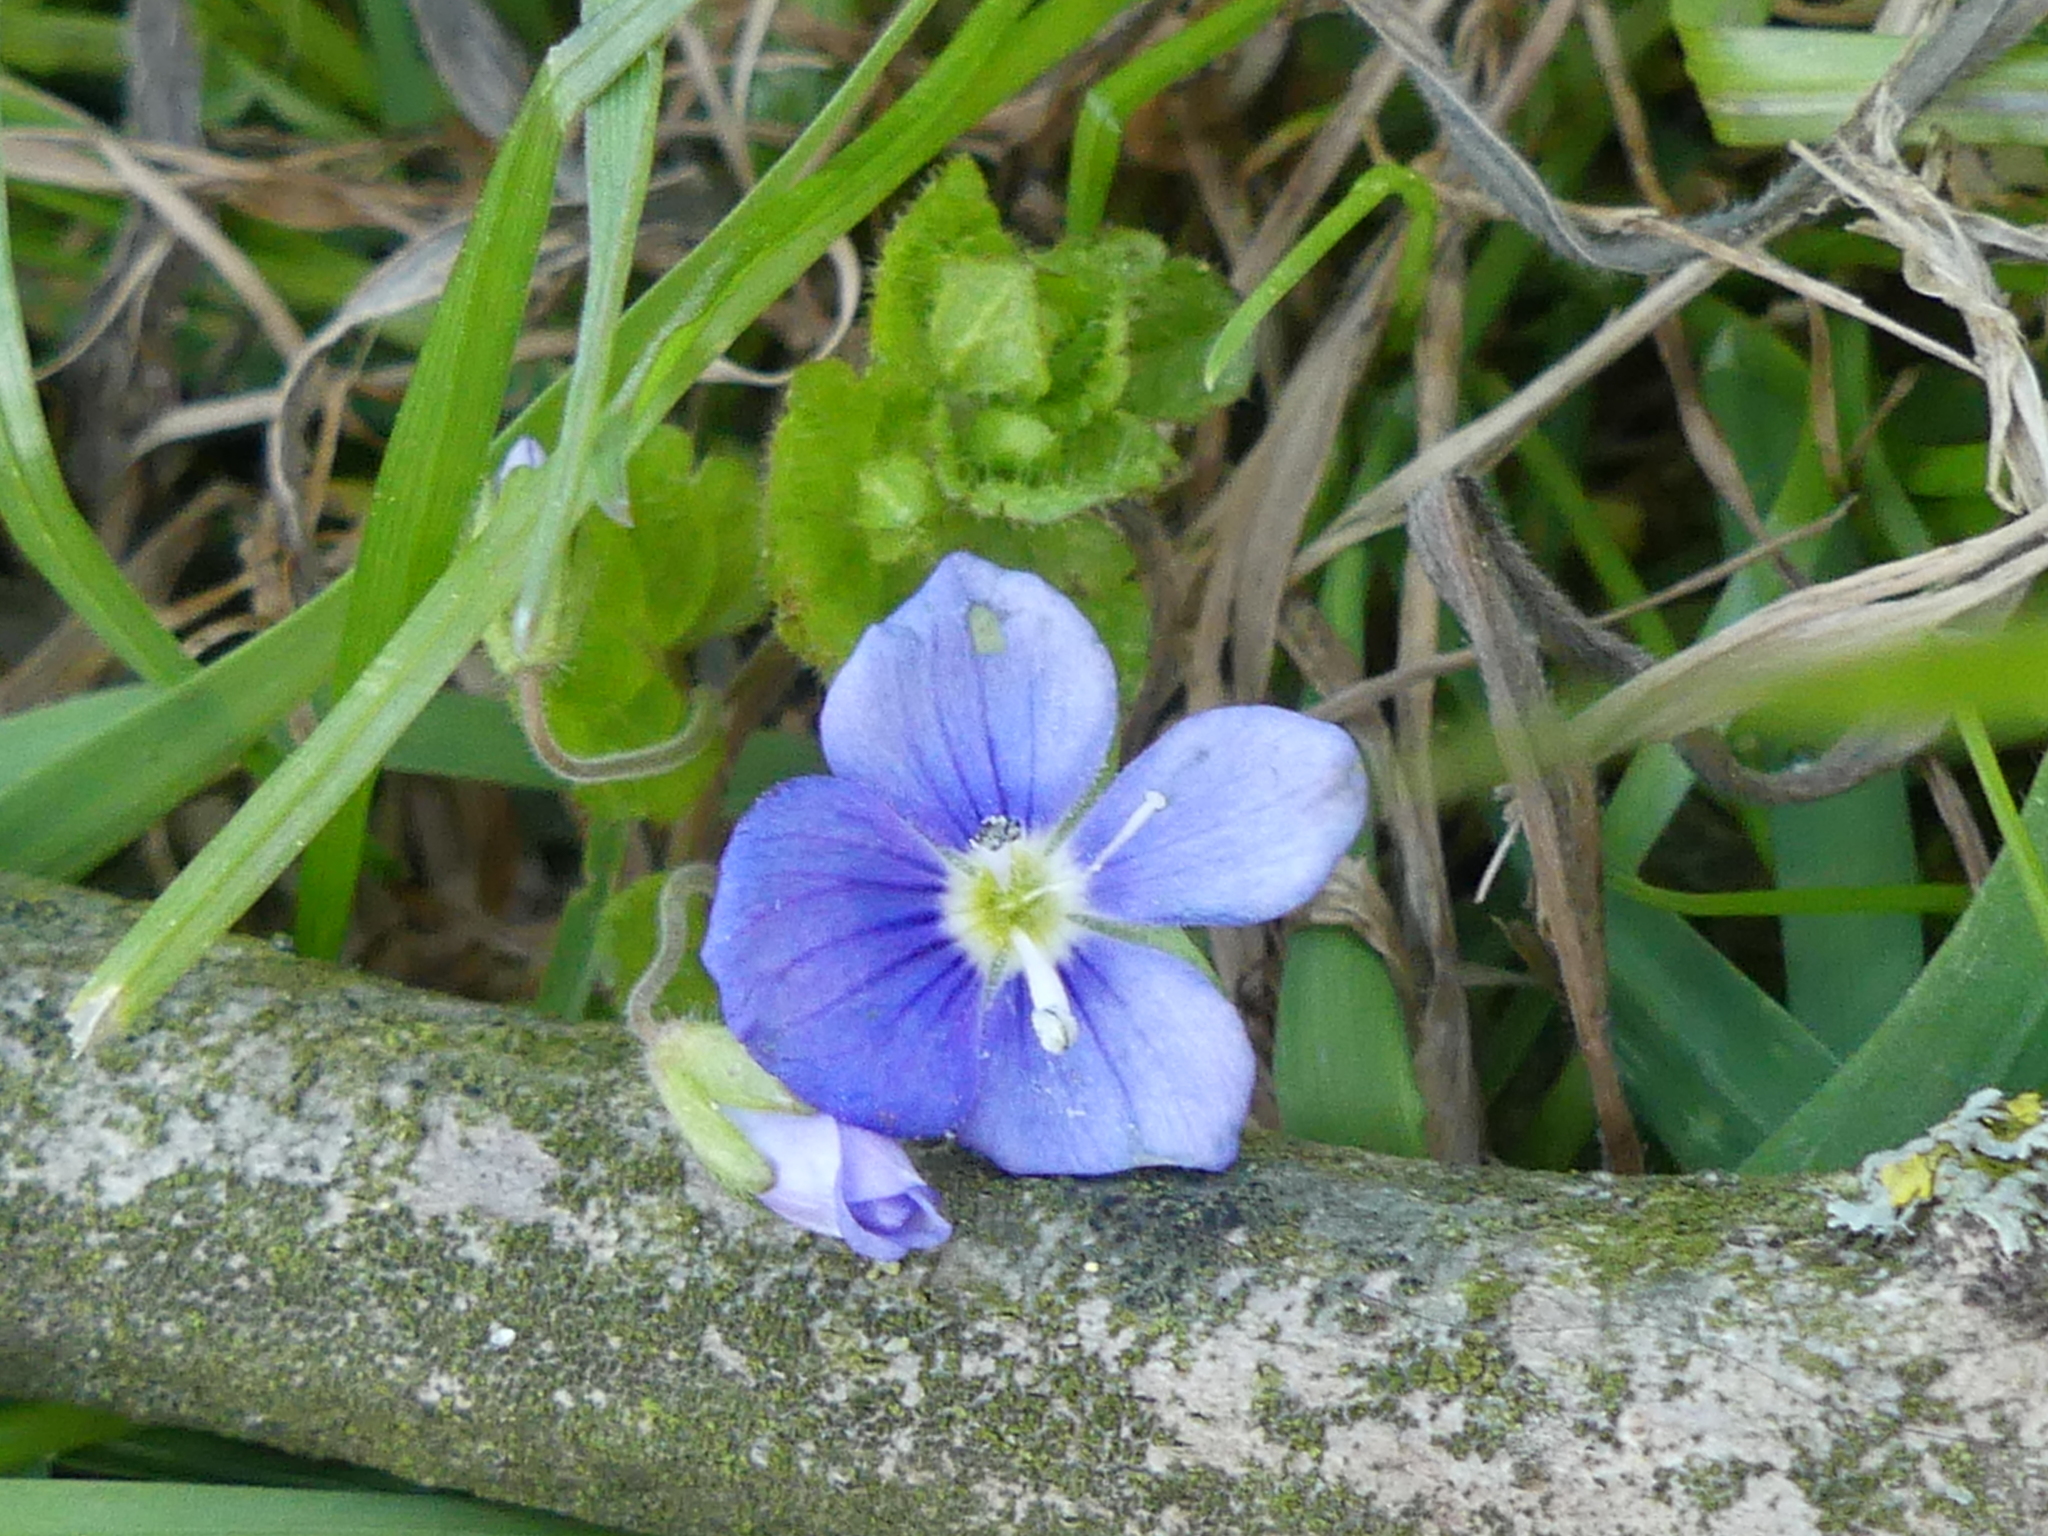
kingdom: Plantae
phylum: Tracheophyta
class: Magnoliopsida
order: Lamiales
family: Plantaginaceae
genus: Veronica
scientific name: Veronica filiformis
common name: Slender speedwell
